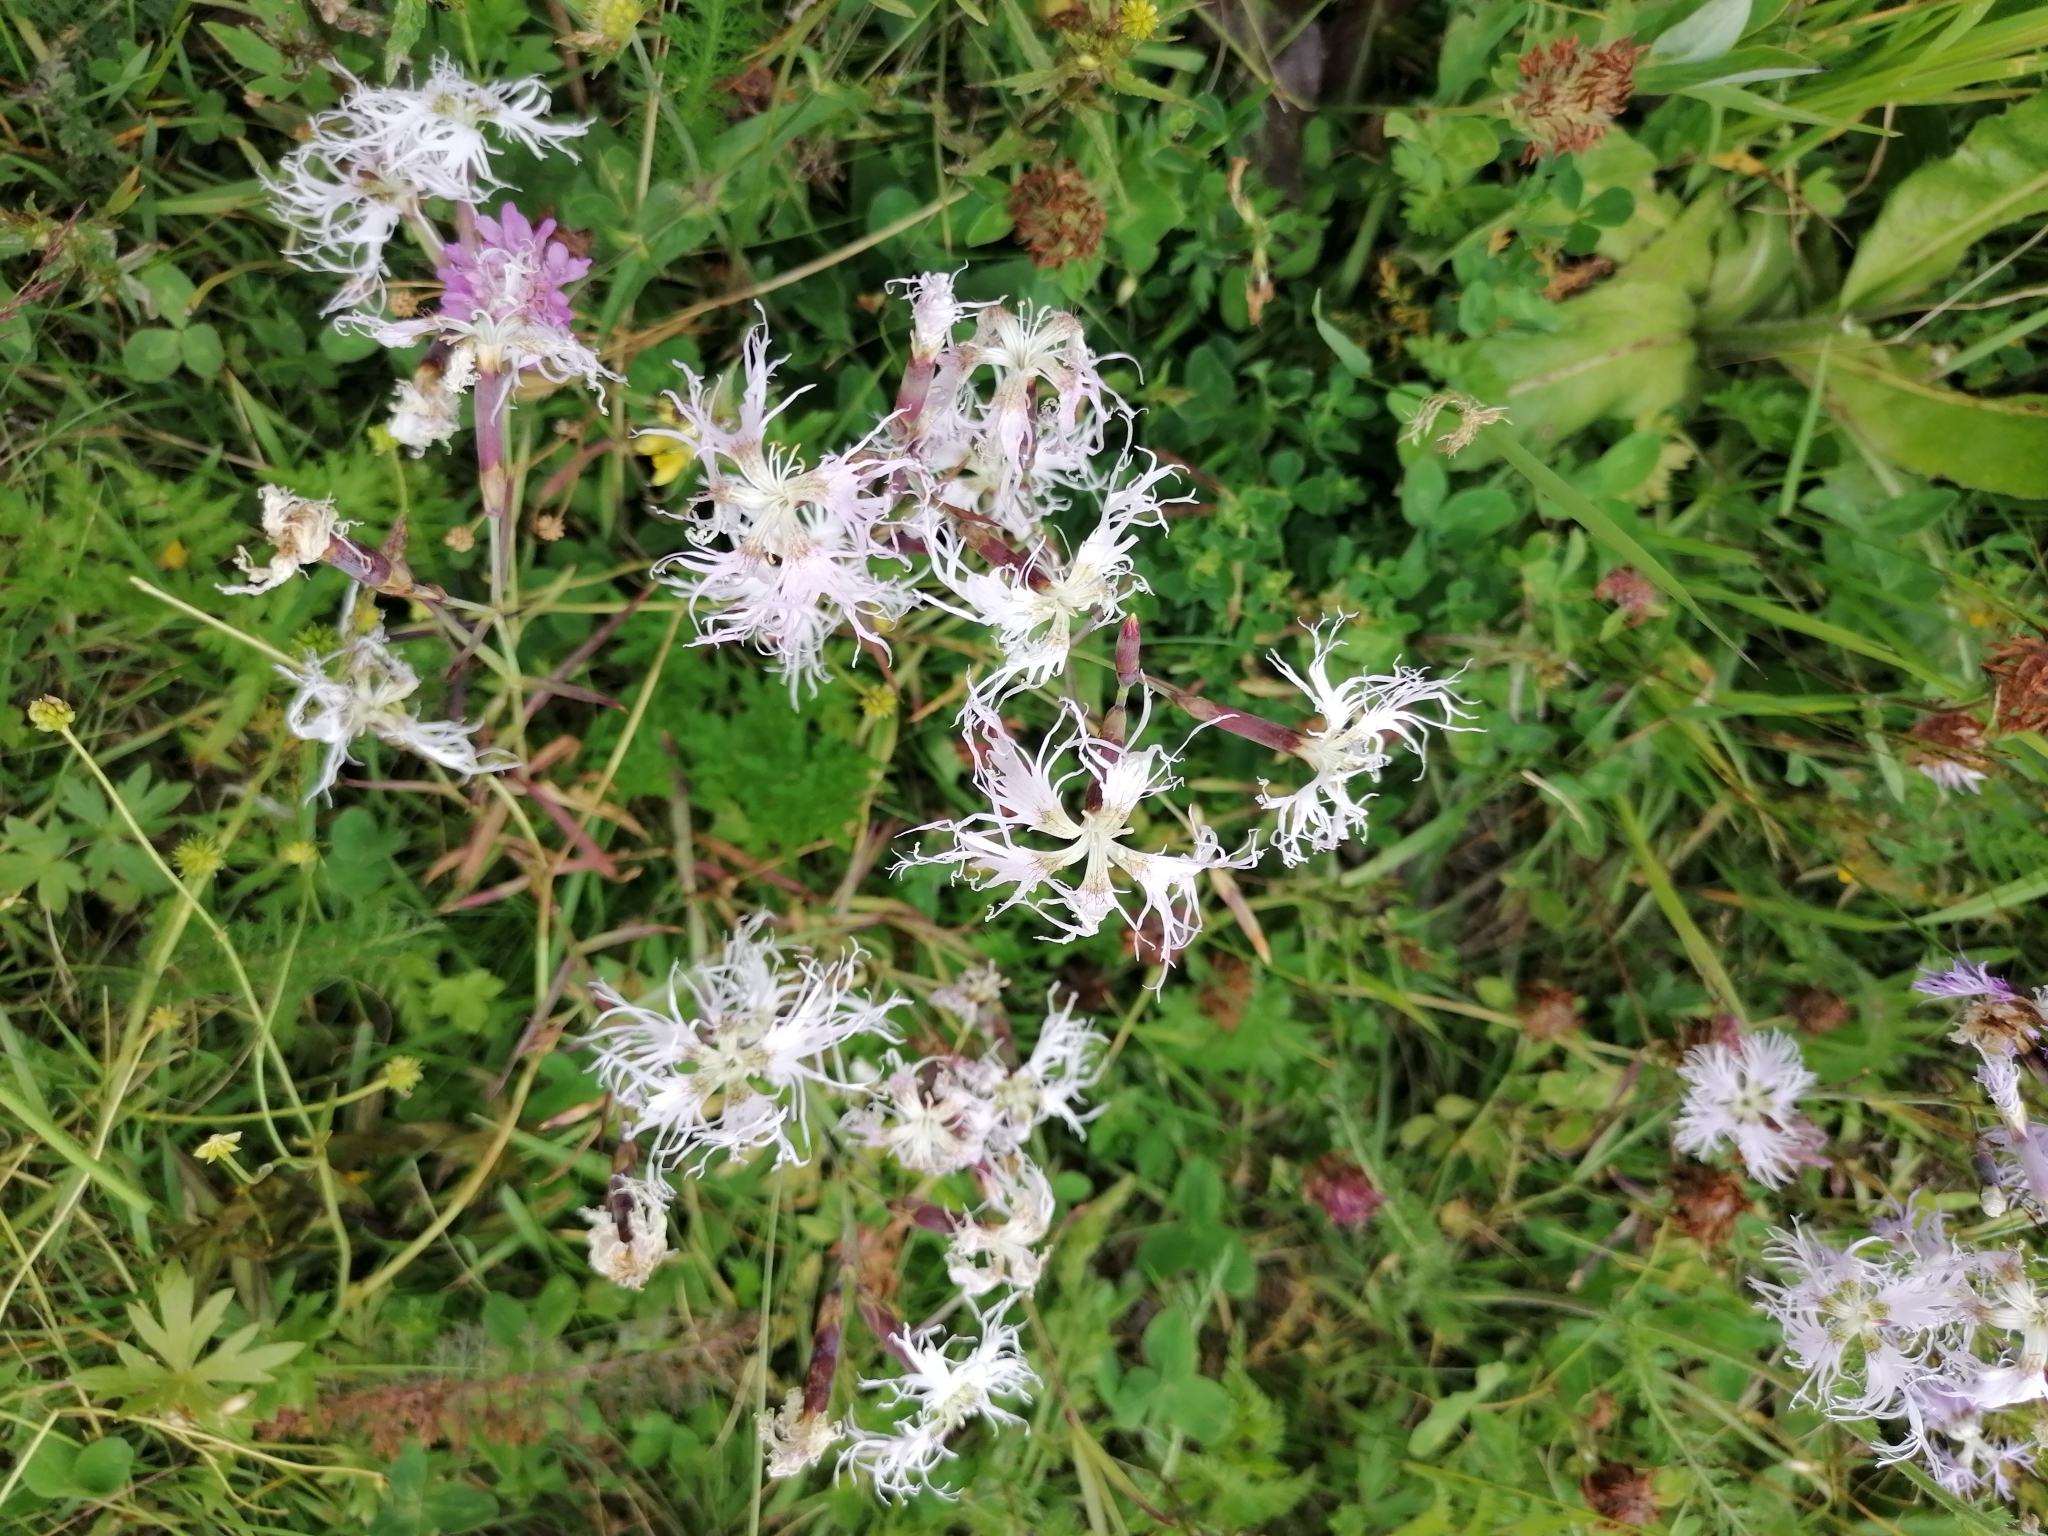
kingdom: Plantae
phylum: Tracheophyta
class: Magnoliopsida
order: Caryophyllales
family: Caryophyllaceae
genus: Dianthus
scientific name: Dianthus superbus
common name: Fringed pink
